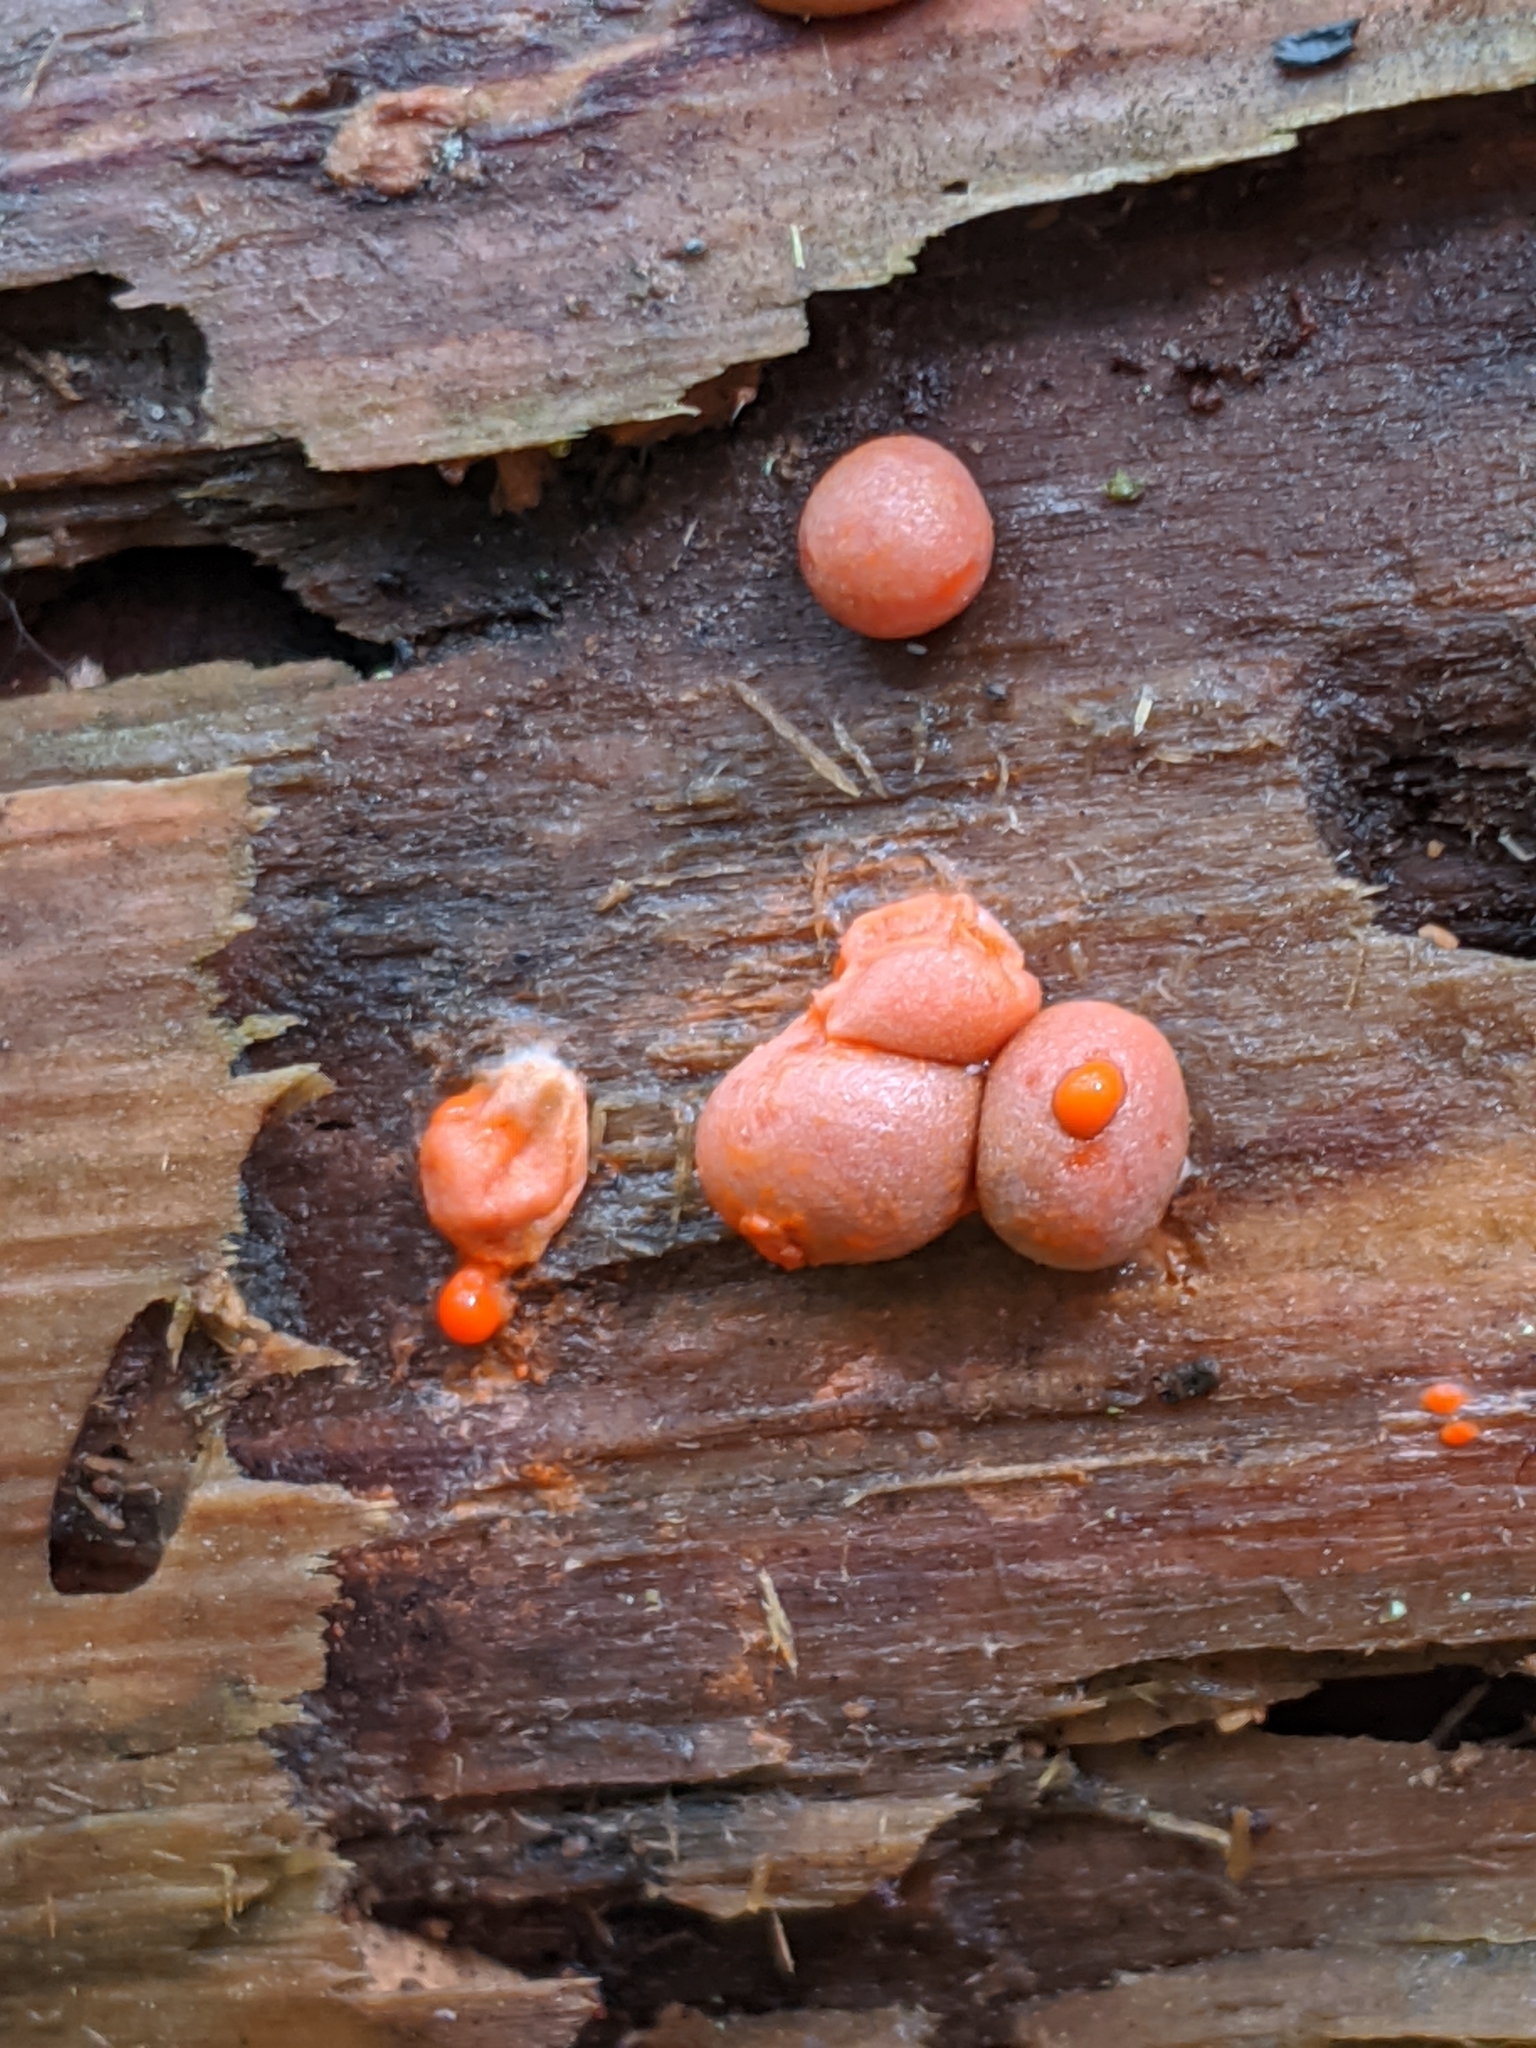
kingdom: Protozoa
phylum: Mycetozoa
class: Myxomycetes
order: Cribrariales
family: Tubiferaceae
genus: Lycogala
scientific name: Lycogala epidendrum
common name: Wolf's milk
